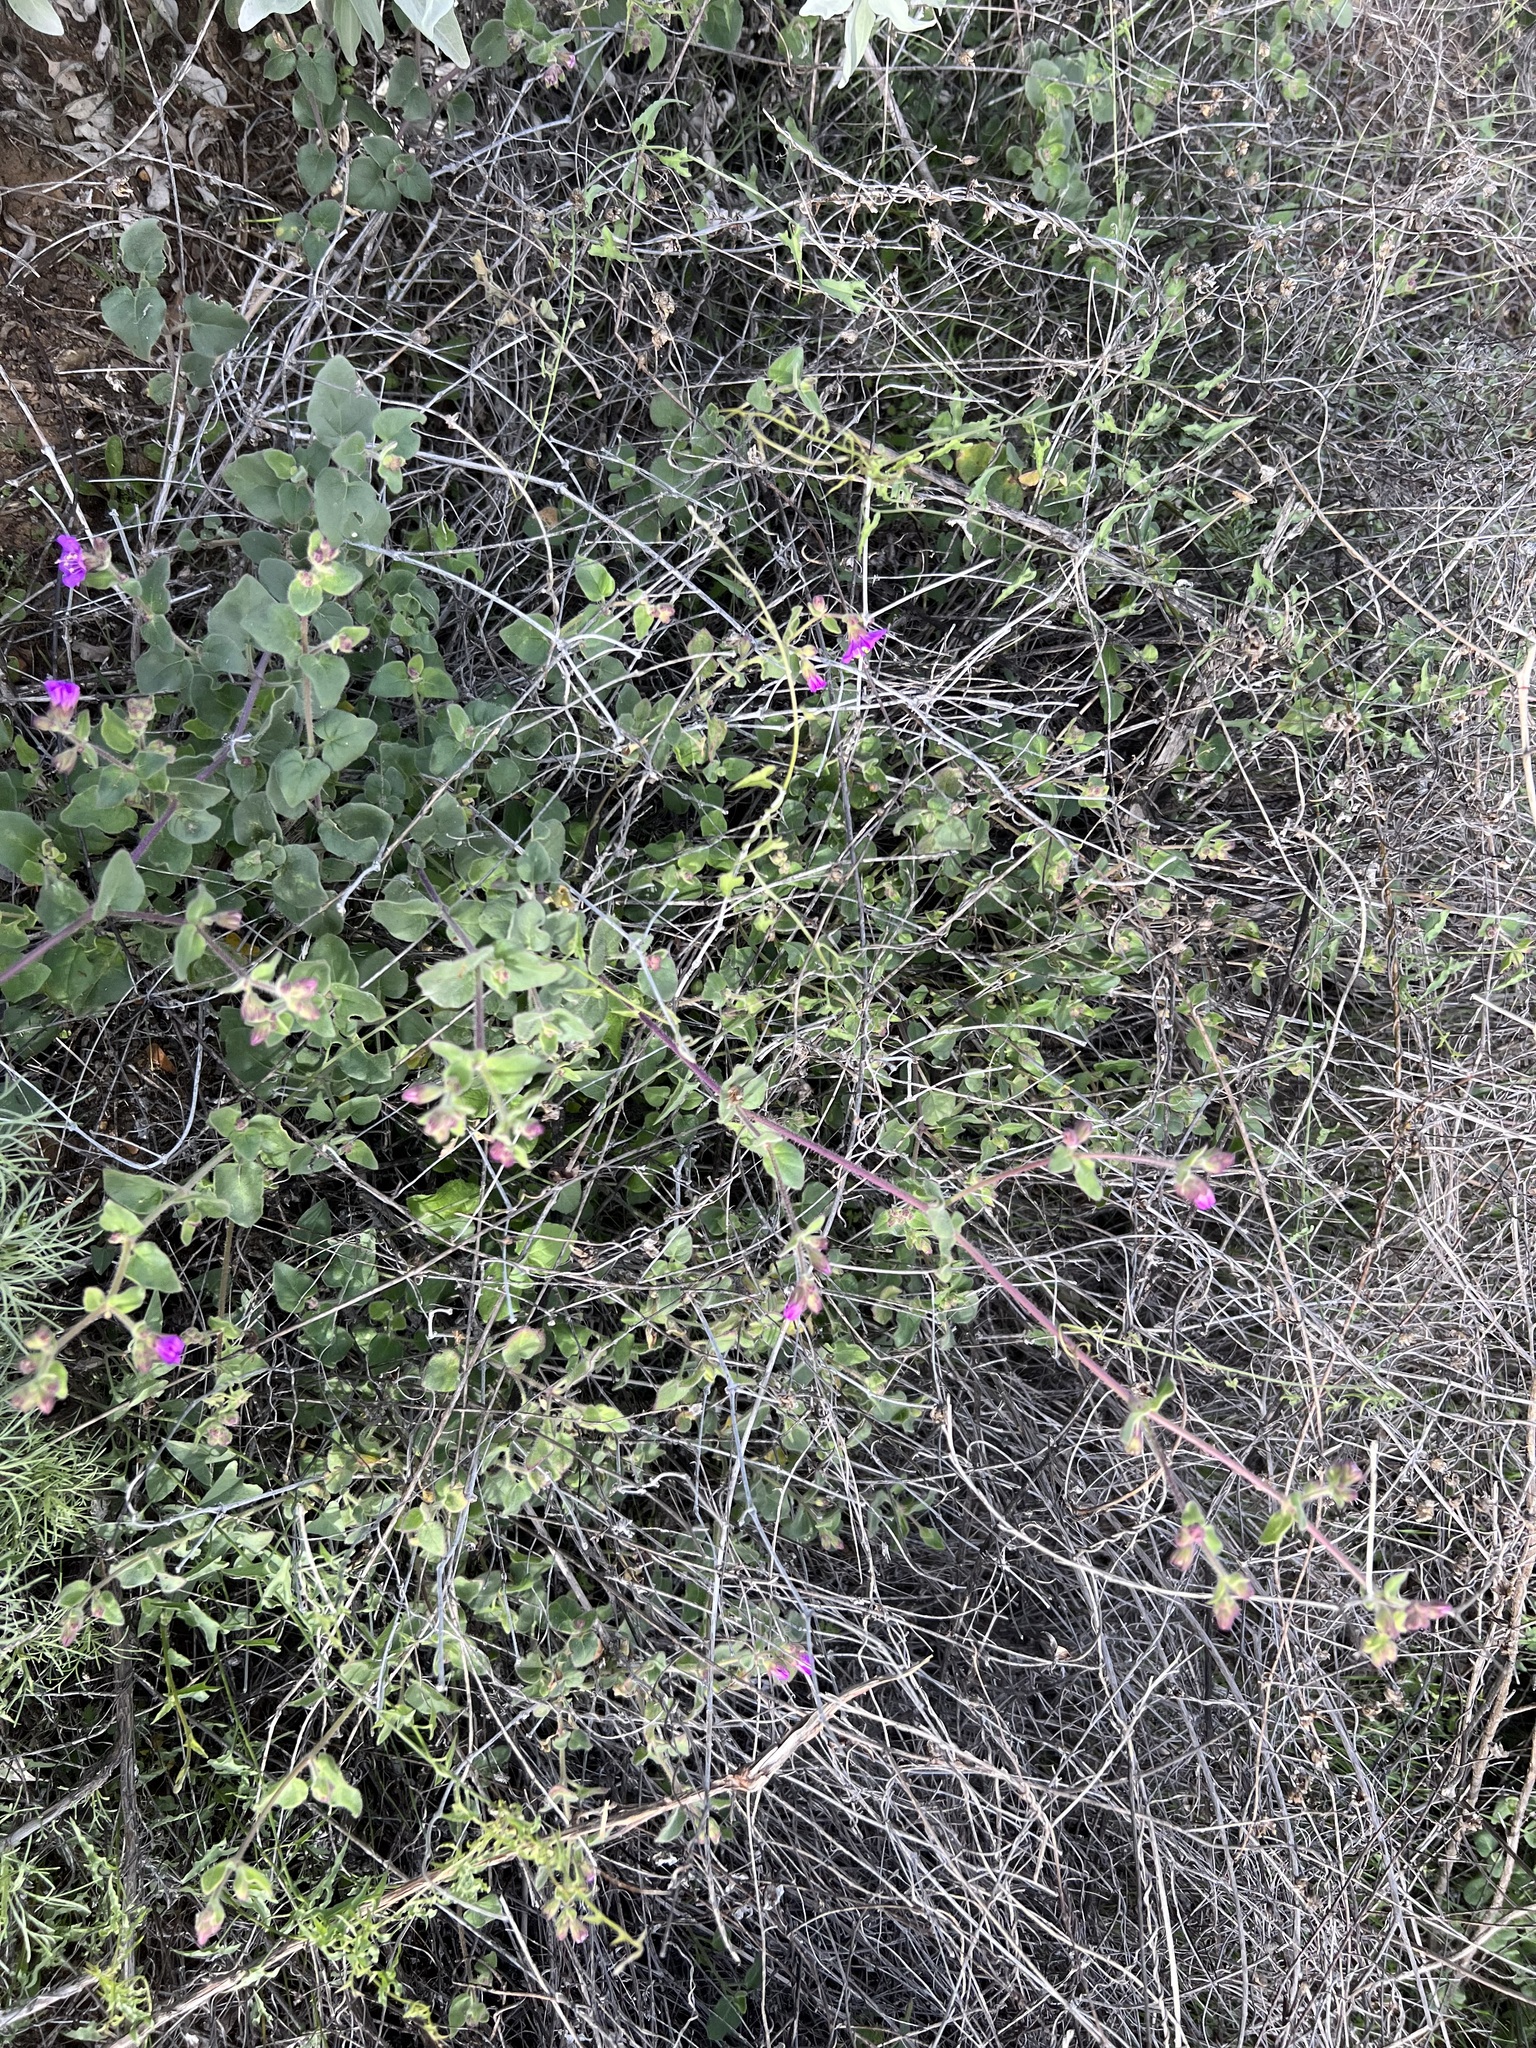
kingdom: Plantae
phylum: Tracheophyta
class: Magnoliopsida
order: Caryophyllales
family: Nyctaginaceae
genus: Mirabilis
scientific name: Mirabilis laevis
